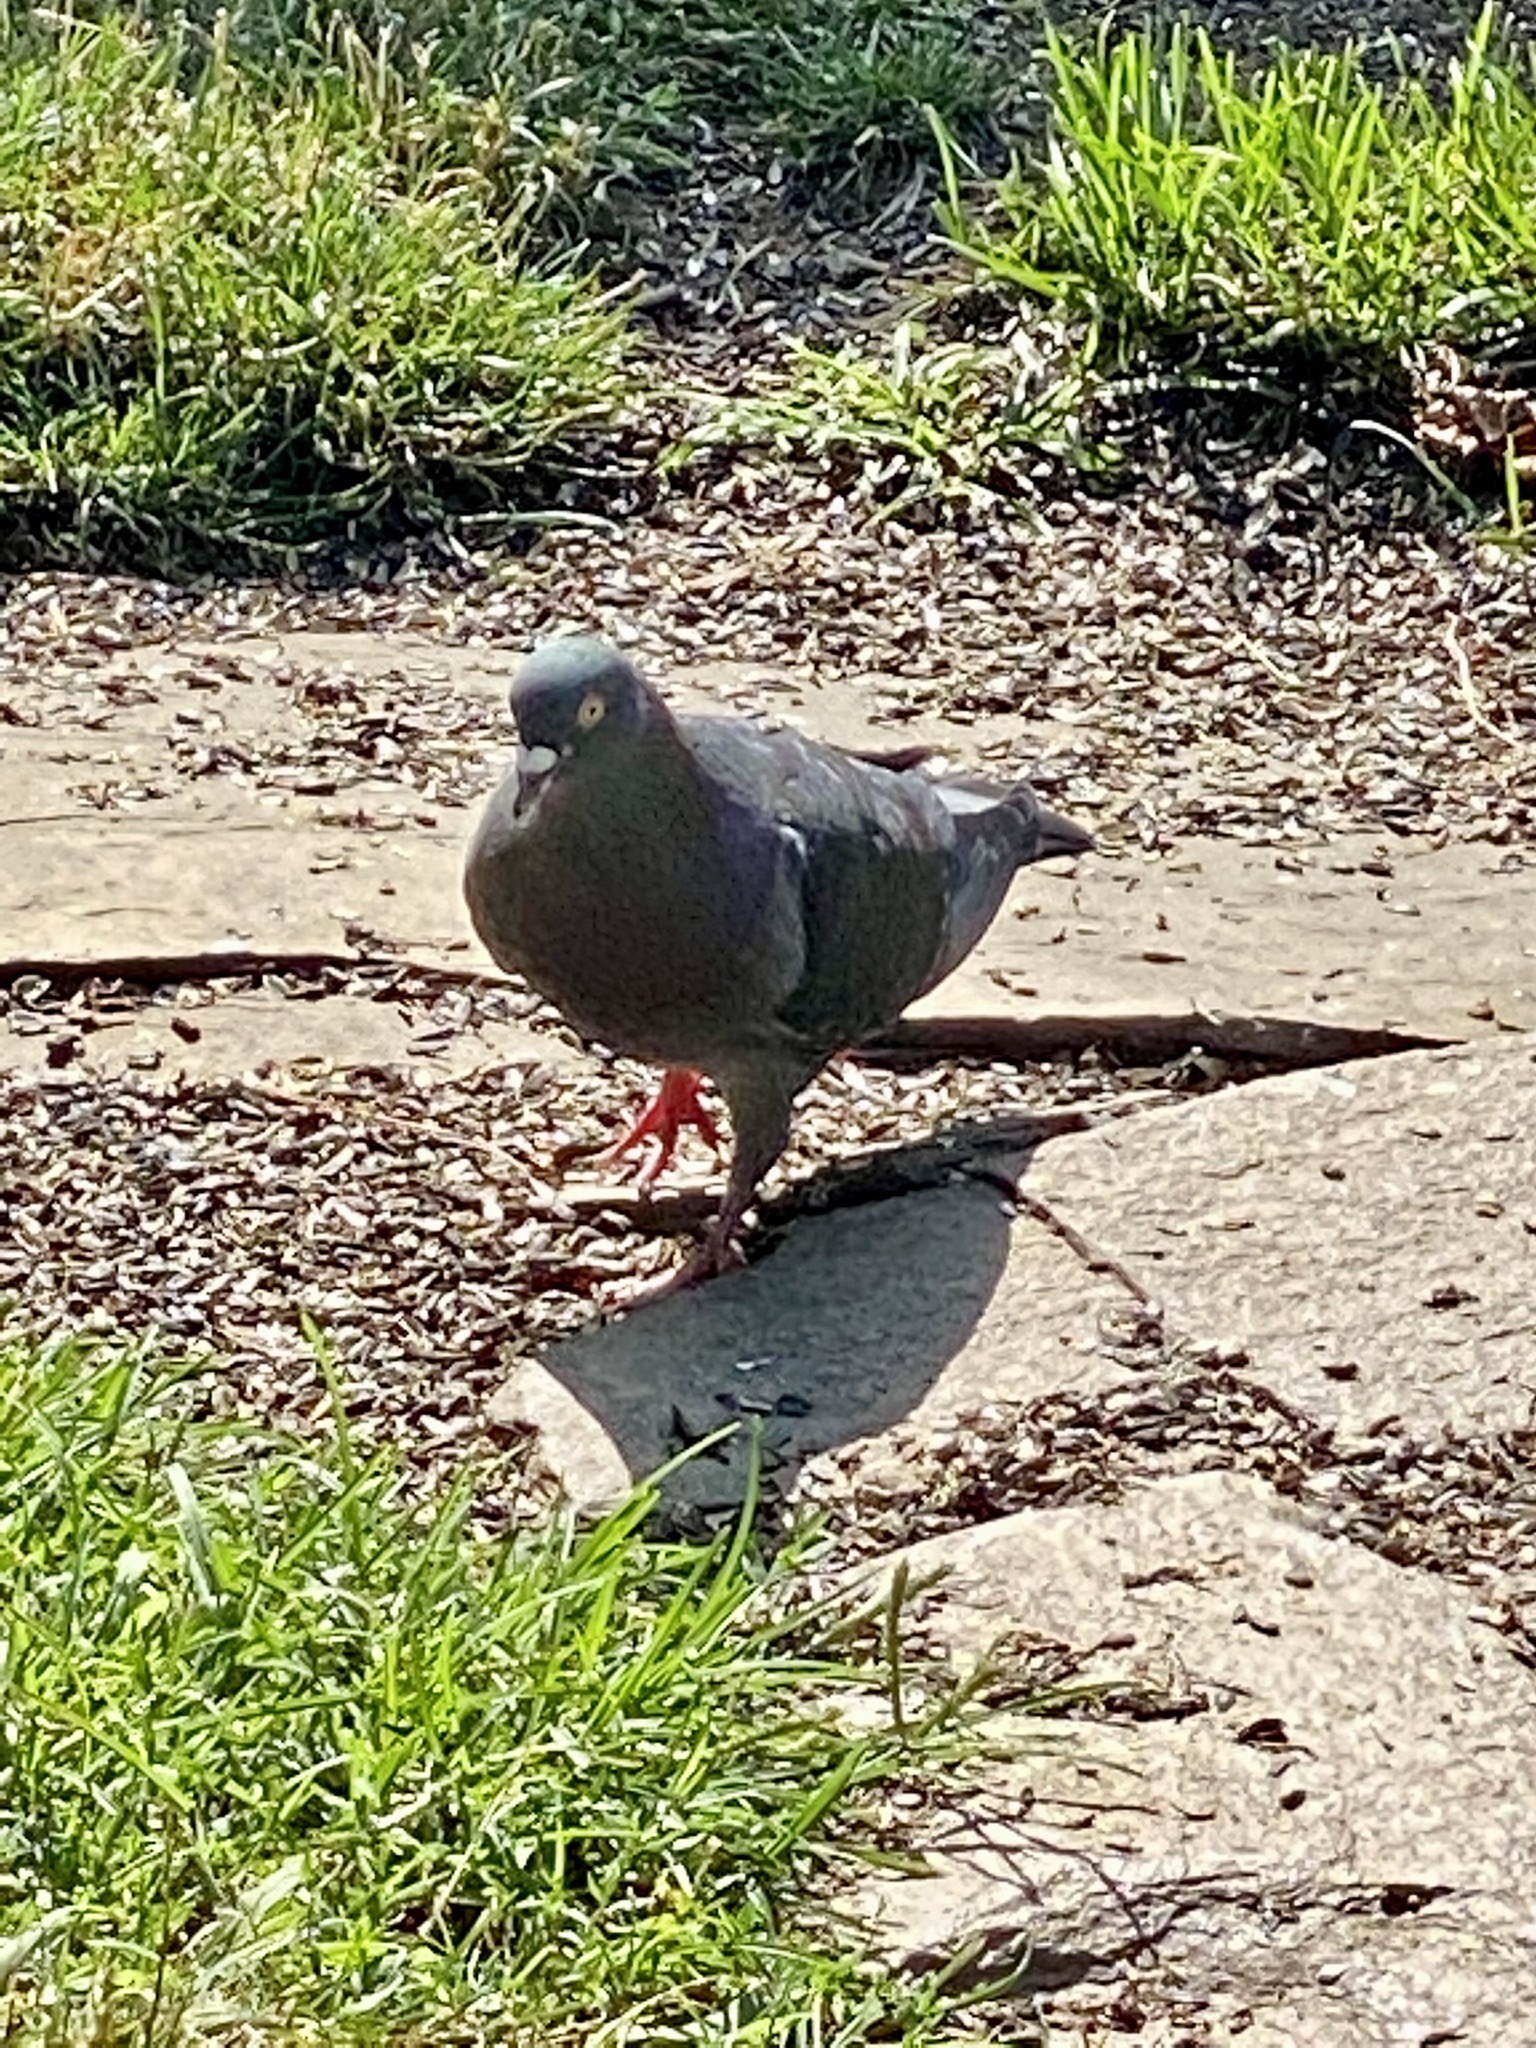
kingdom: Animalia
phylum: Chordata
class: Aves
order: Columbiformes
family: Columbidae
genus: Columba
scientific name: Columba livia
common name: Rock pigeon
